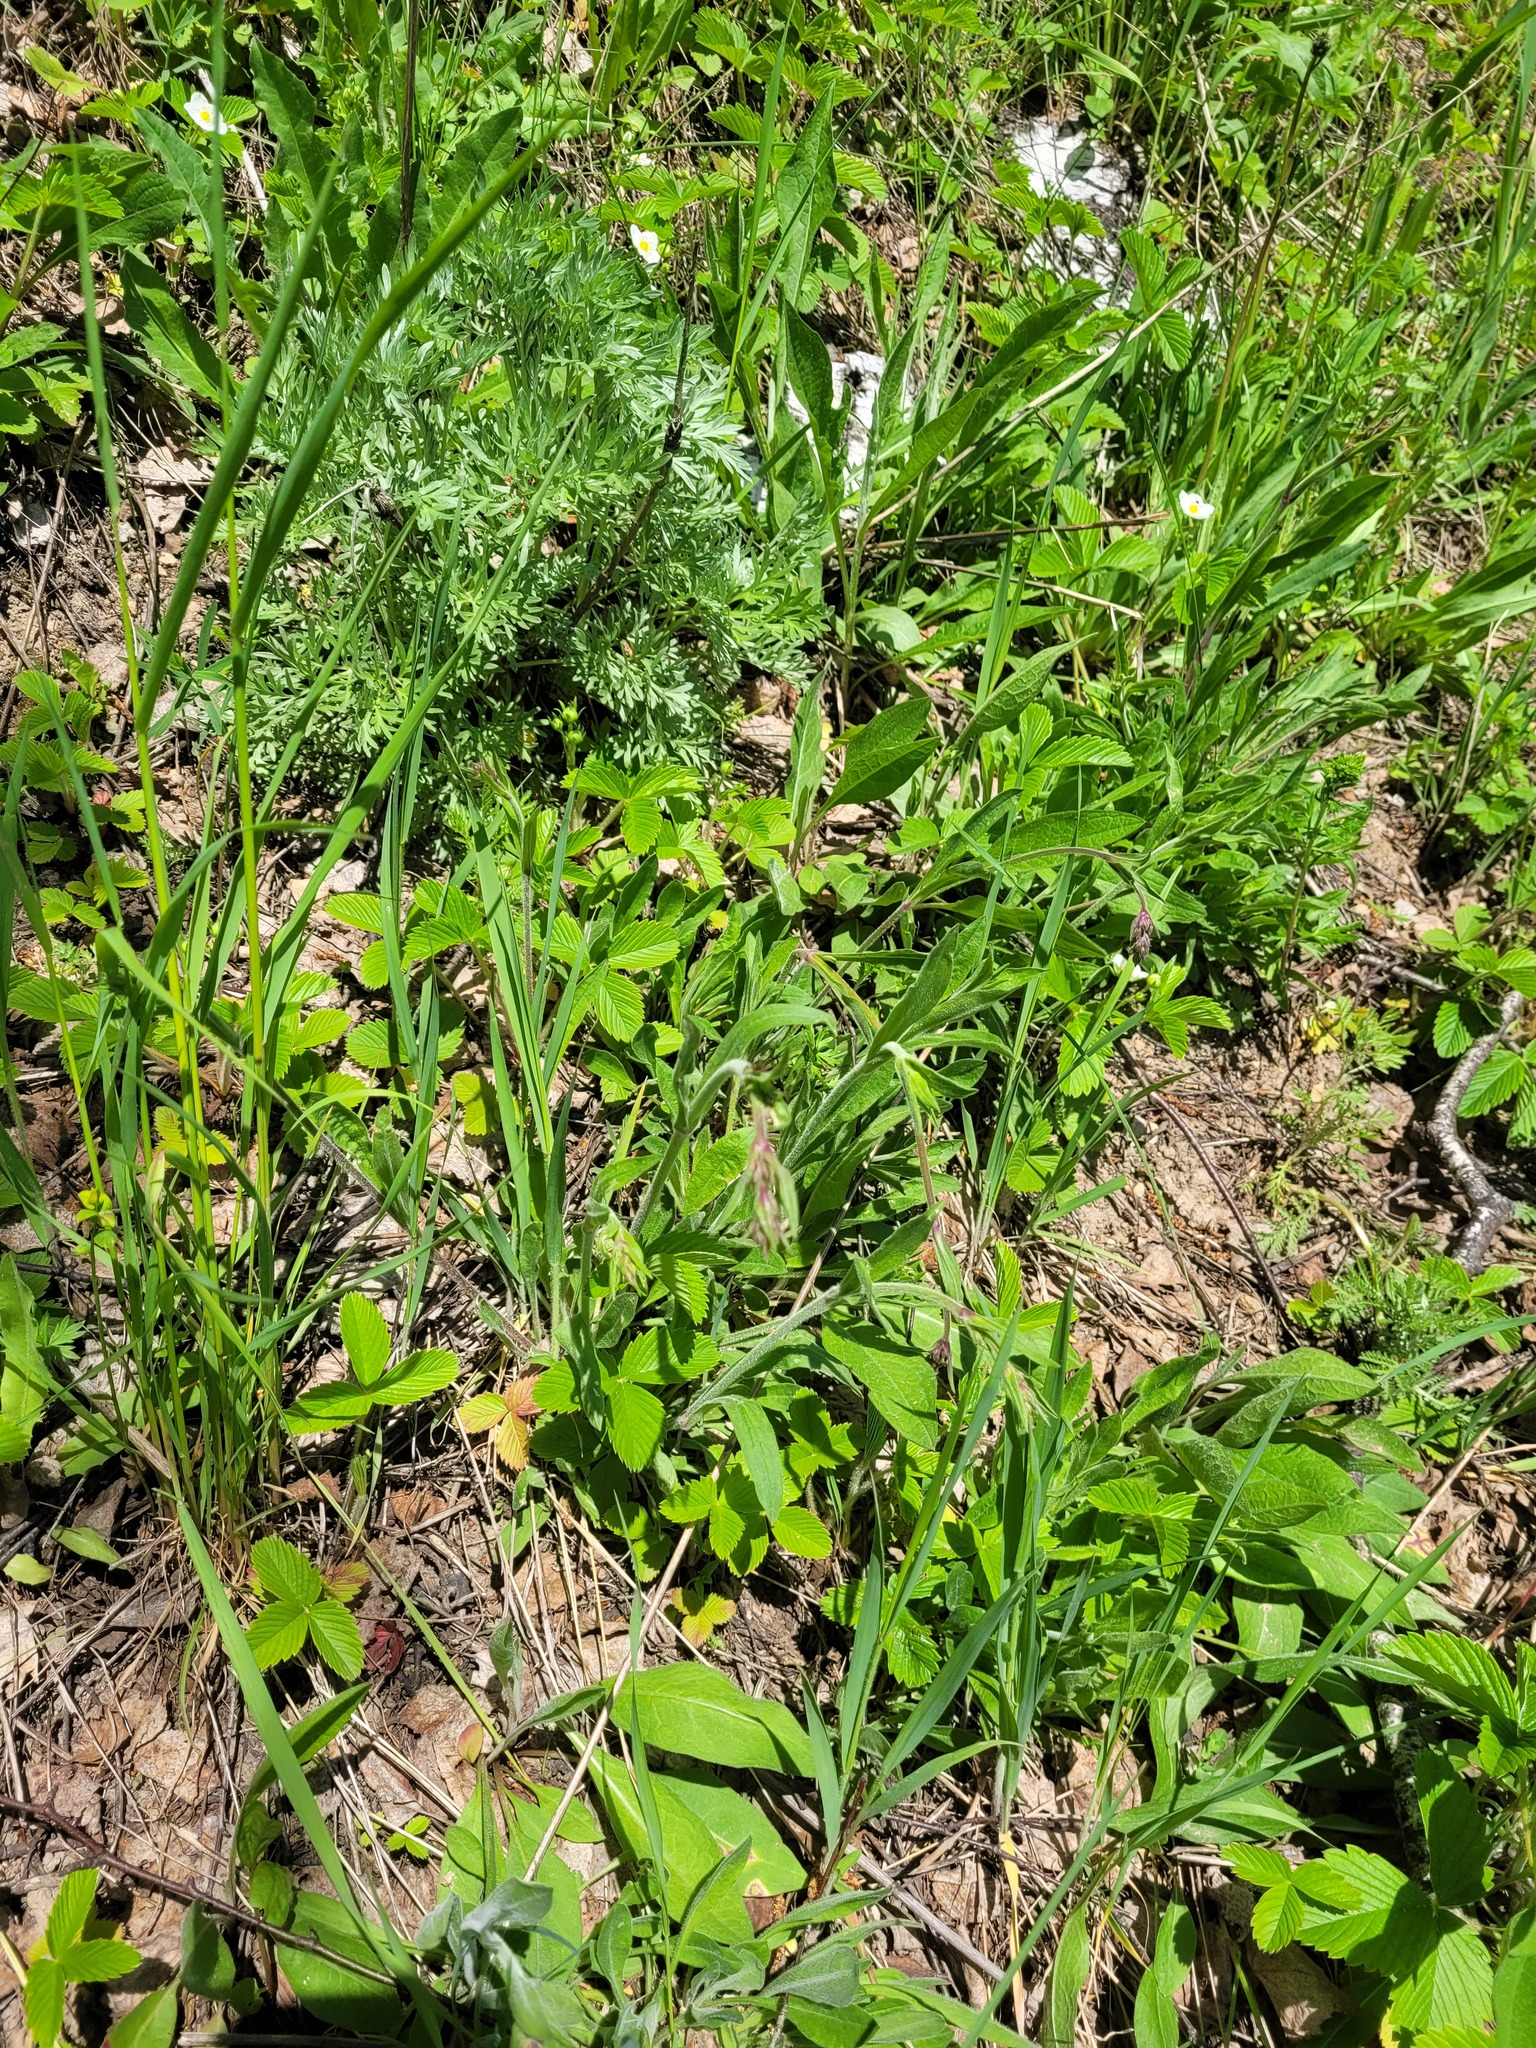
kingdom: Plantae
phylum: Tracheophyta
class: Magnoliopsida
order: Caryophyllales
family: Caryophyllaceae
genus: Silene
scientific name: Silene nutans
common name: Nottingham catchfly
